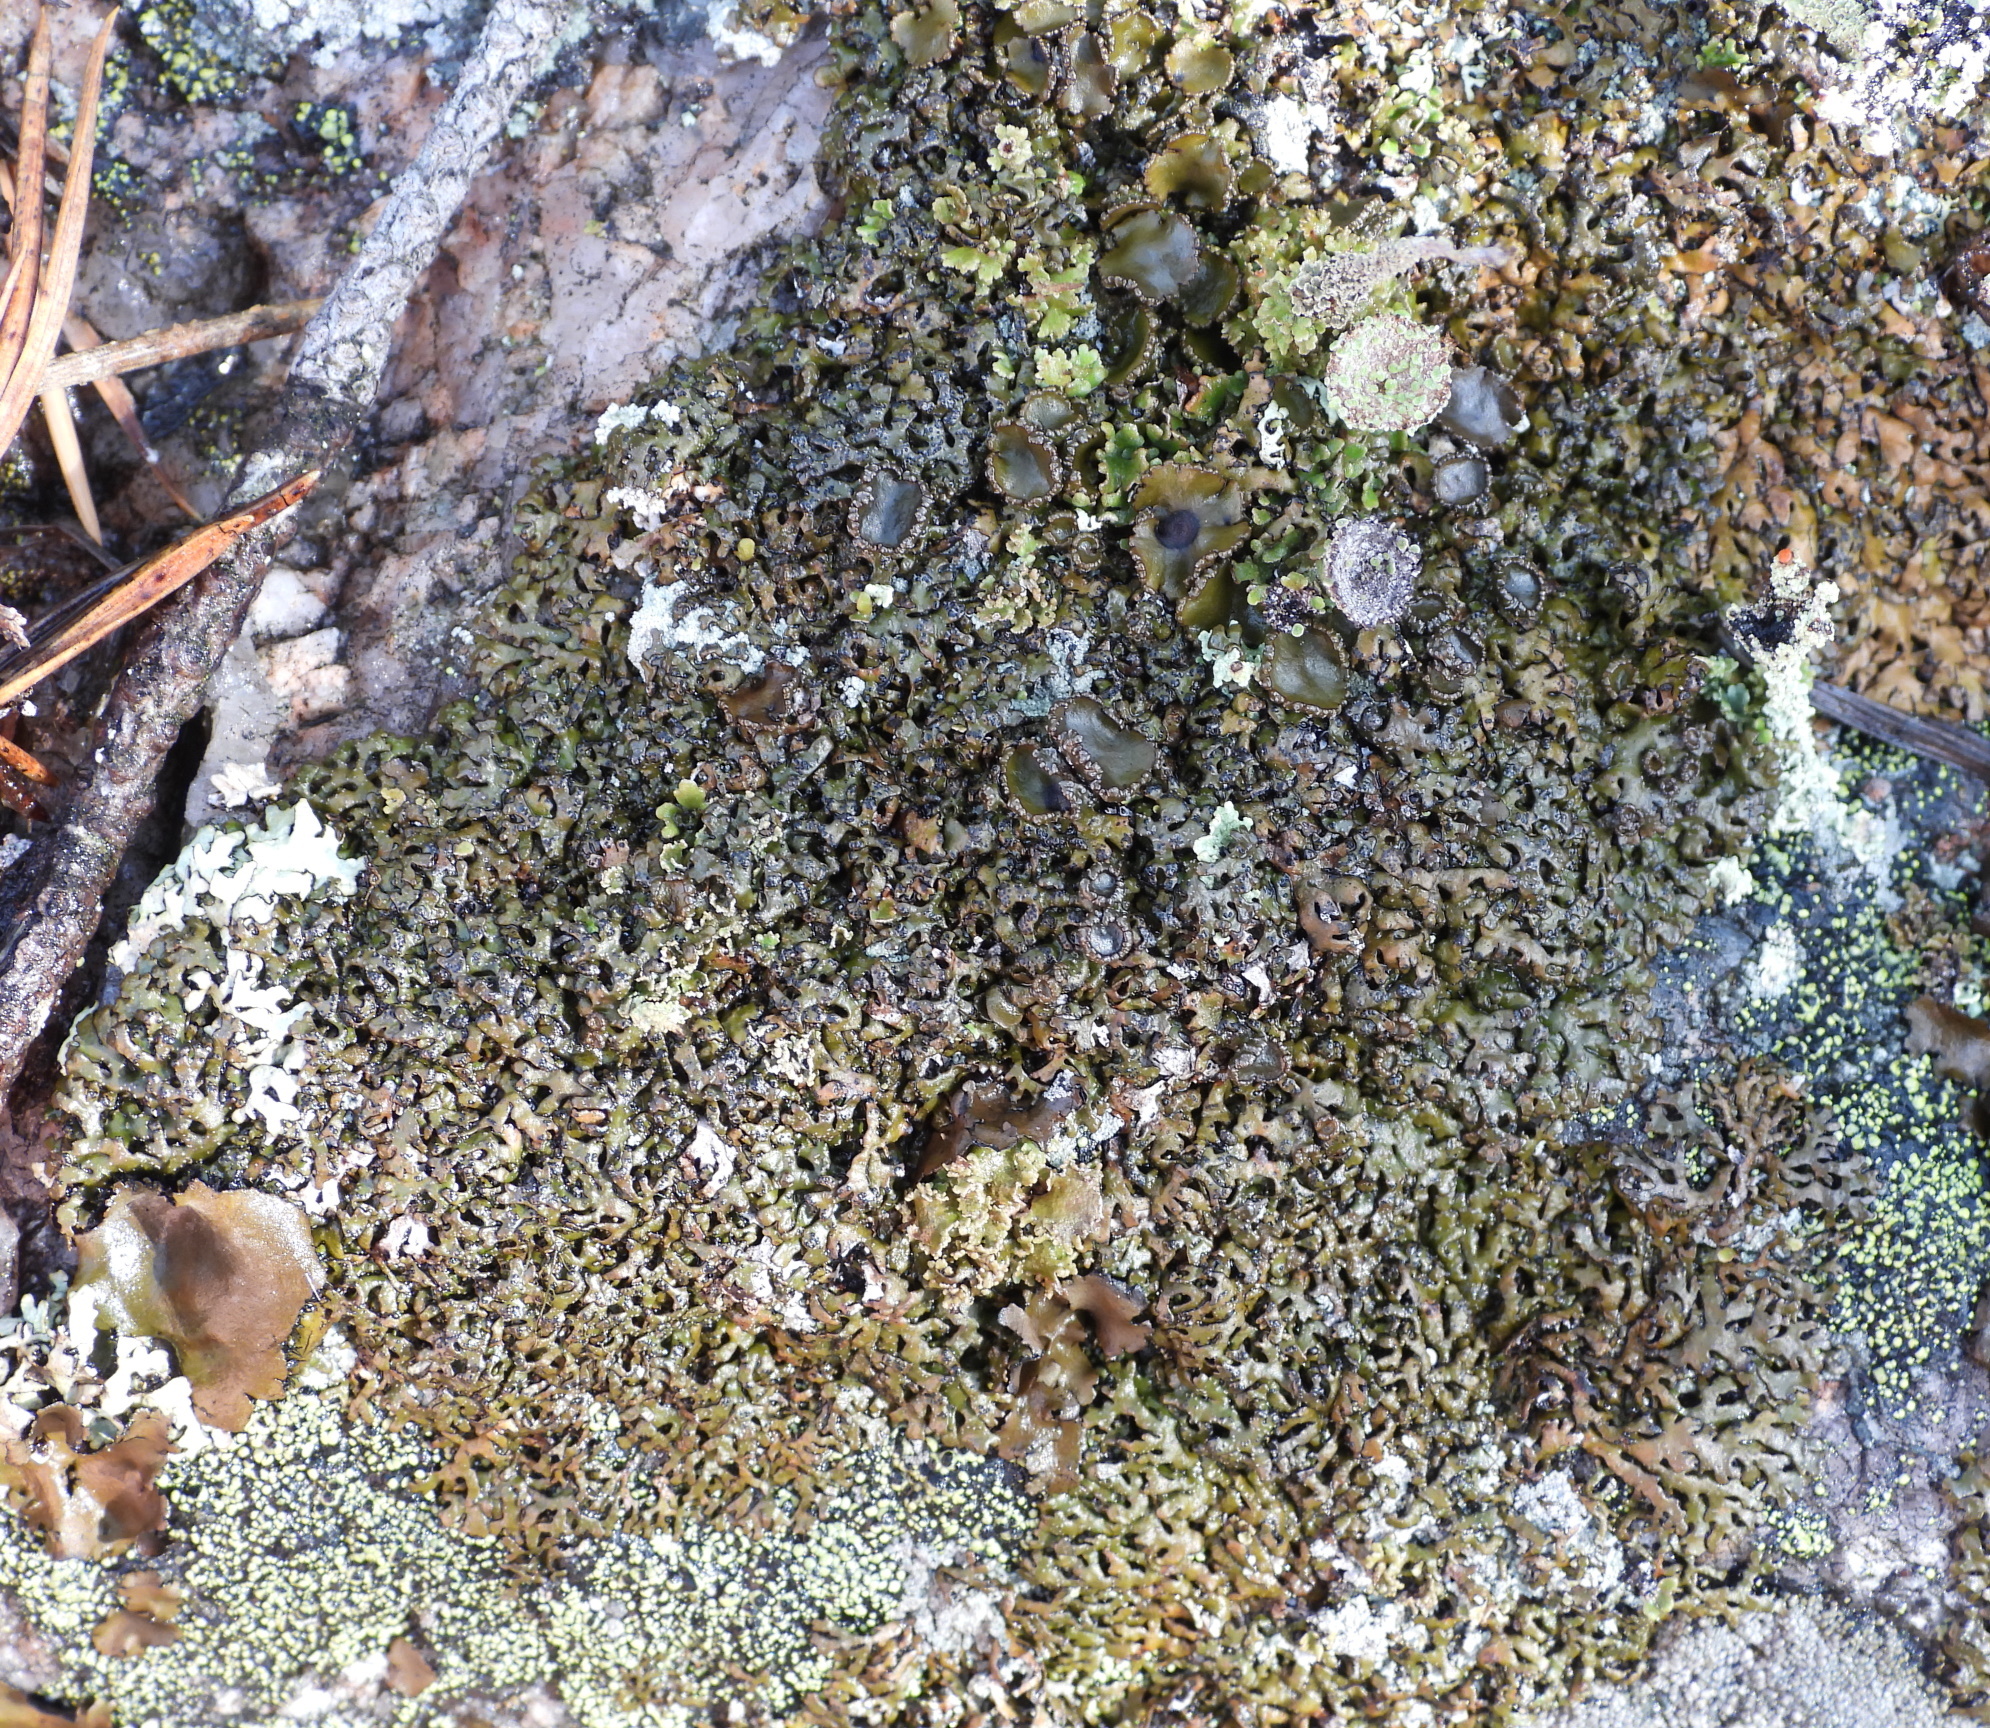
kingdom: Fungi
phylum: Ascomycota
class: Lecanoromycetes
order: Lecanorales
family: Parmeliaceae
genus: Melanelia
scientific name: Melanelia stygia
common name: Alpine camouflage lichen
